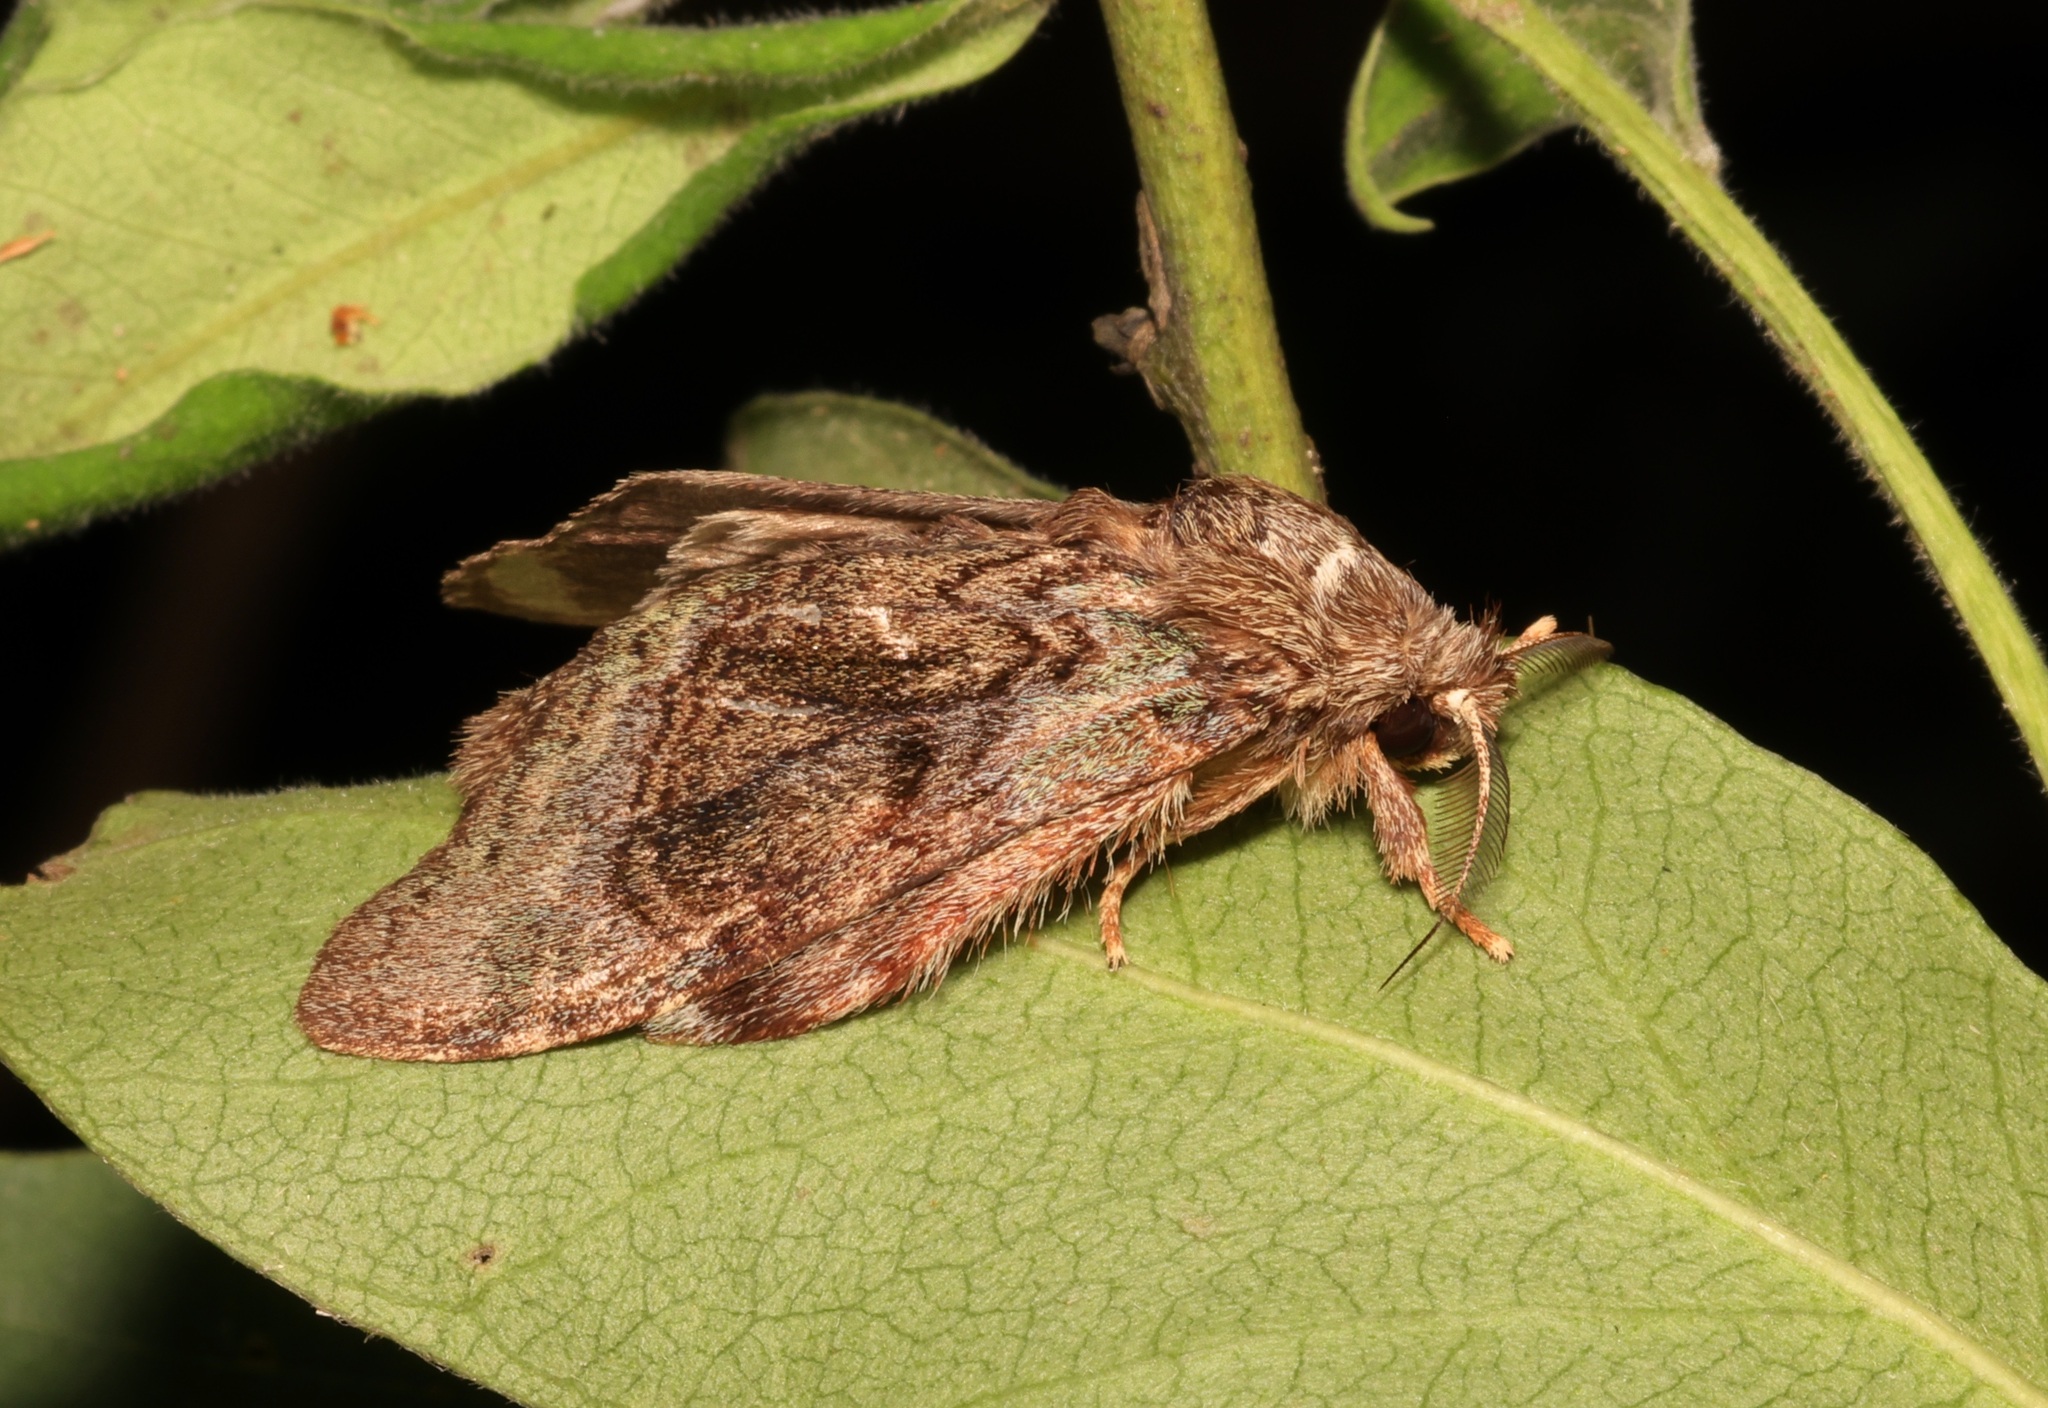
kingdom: Animalia
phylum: Arthropoda
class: Insecta
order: Lepidoptera
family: Notodontidae
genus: Syntypistis
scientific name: Syntypistis pallidifascia
